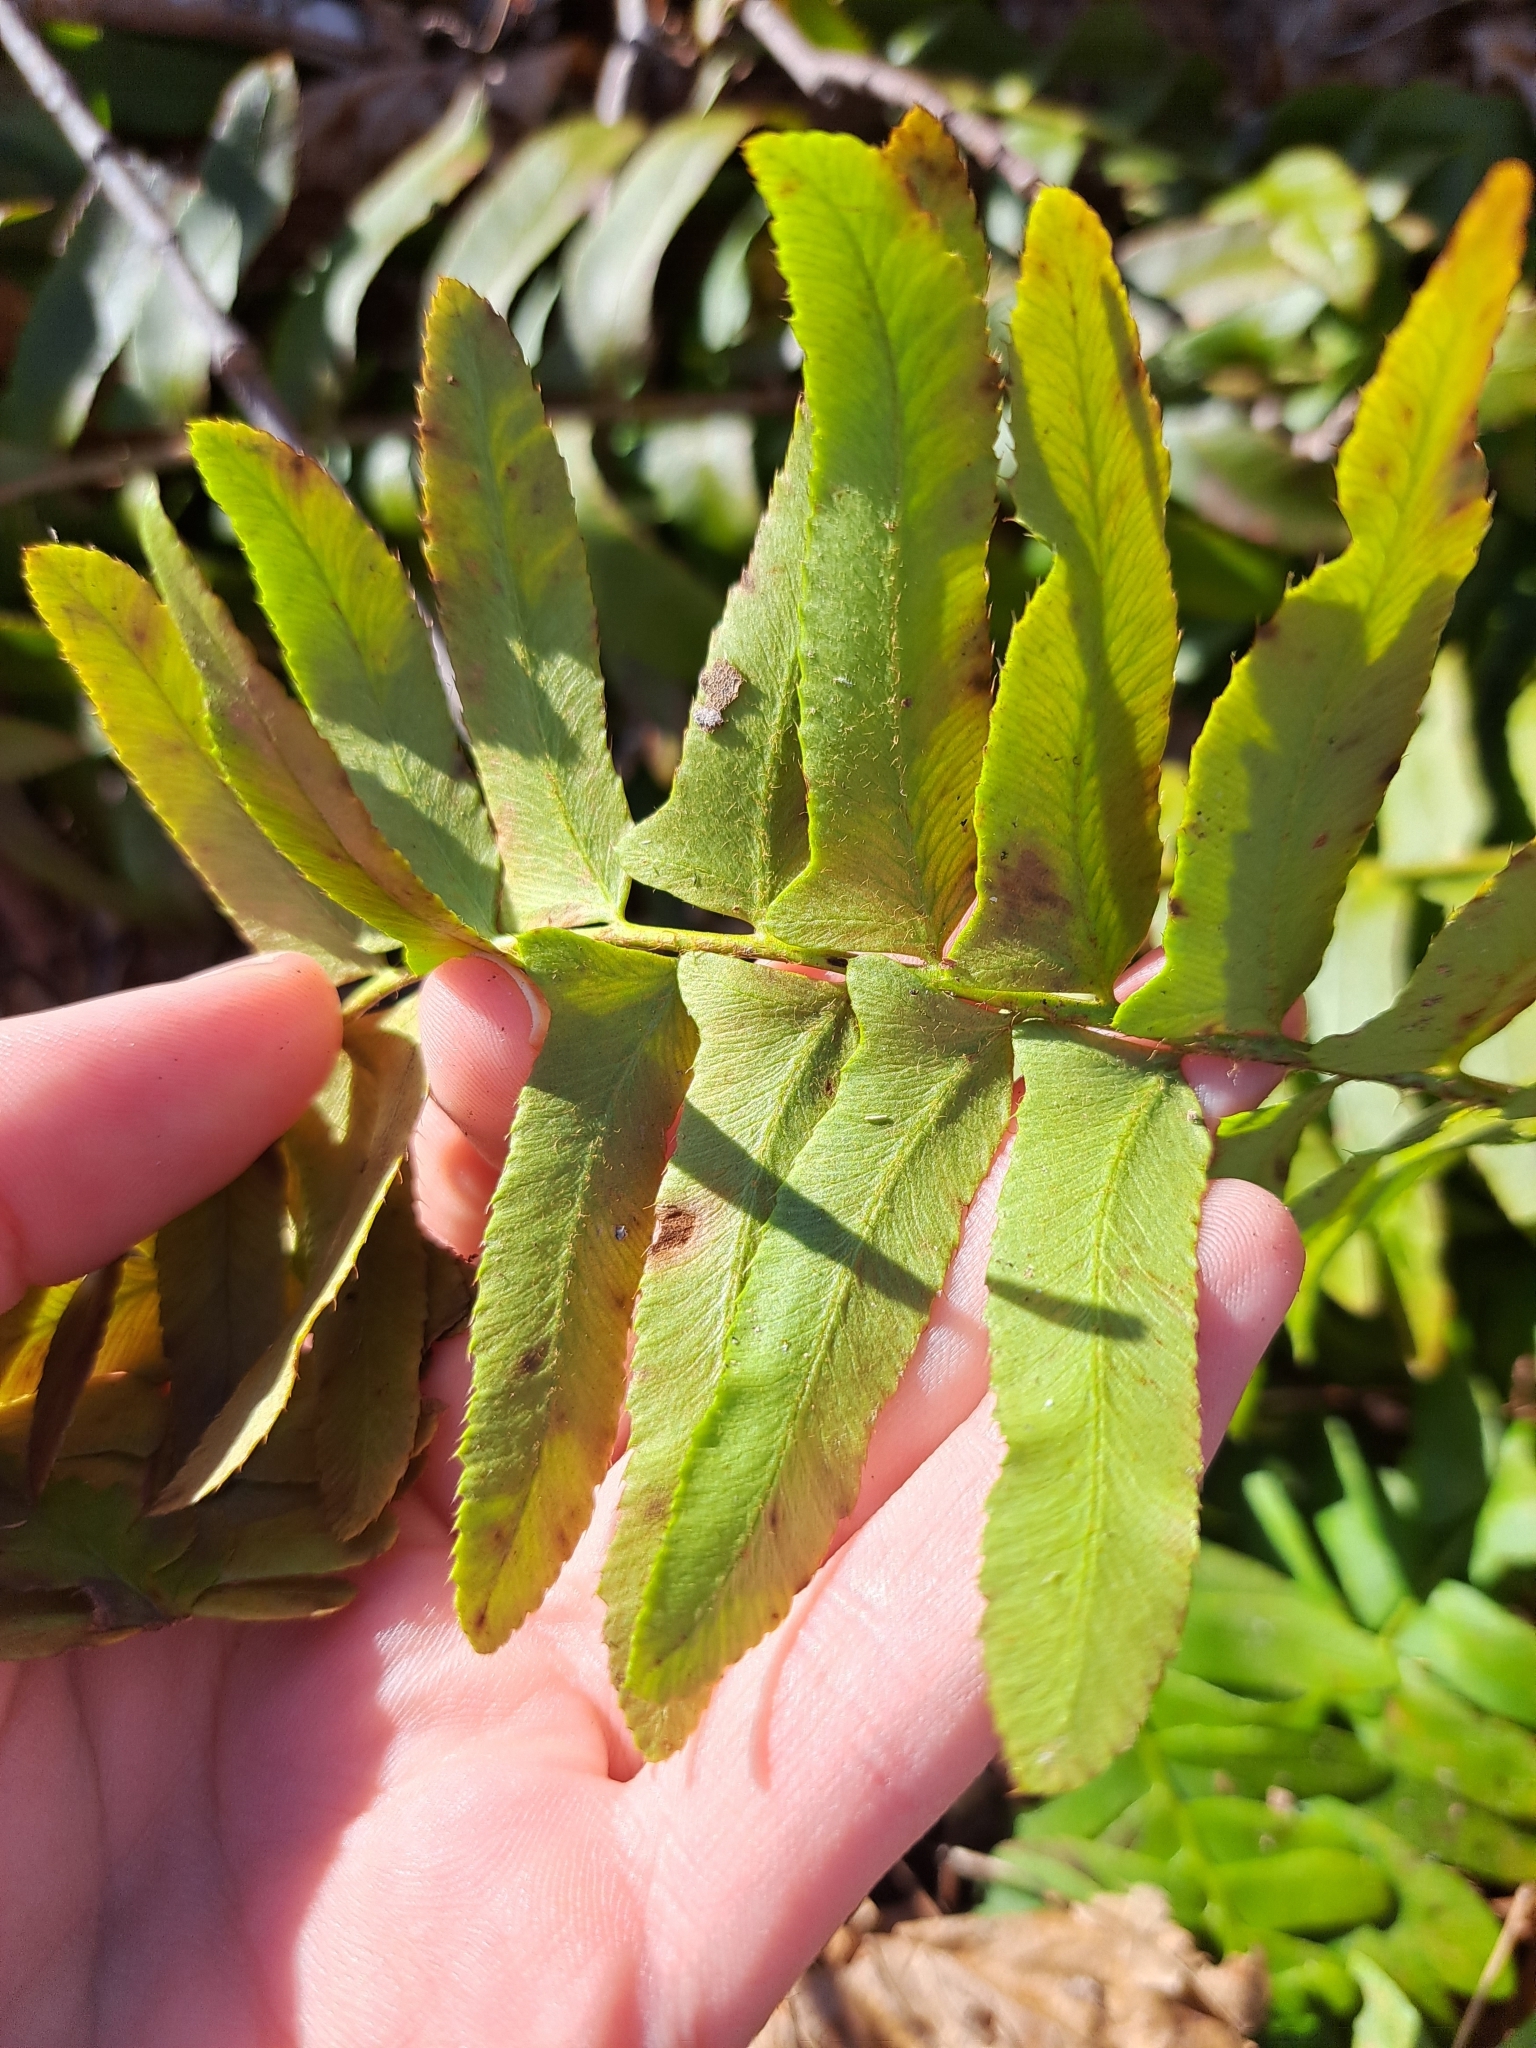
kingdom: Plantae
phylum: Tracheophyta
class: Polypodiopsida
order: Polypodiales
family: Dryopteridaceae
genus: Polystichum
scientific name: Polystichum acrostichoides
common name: Christmas fern
